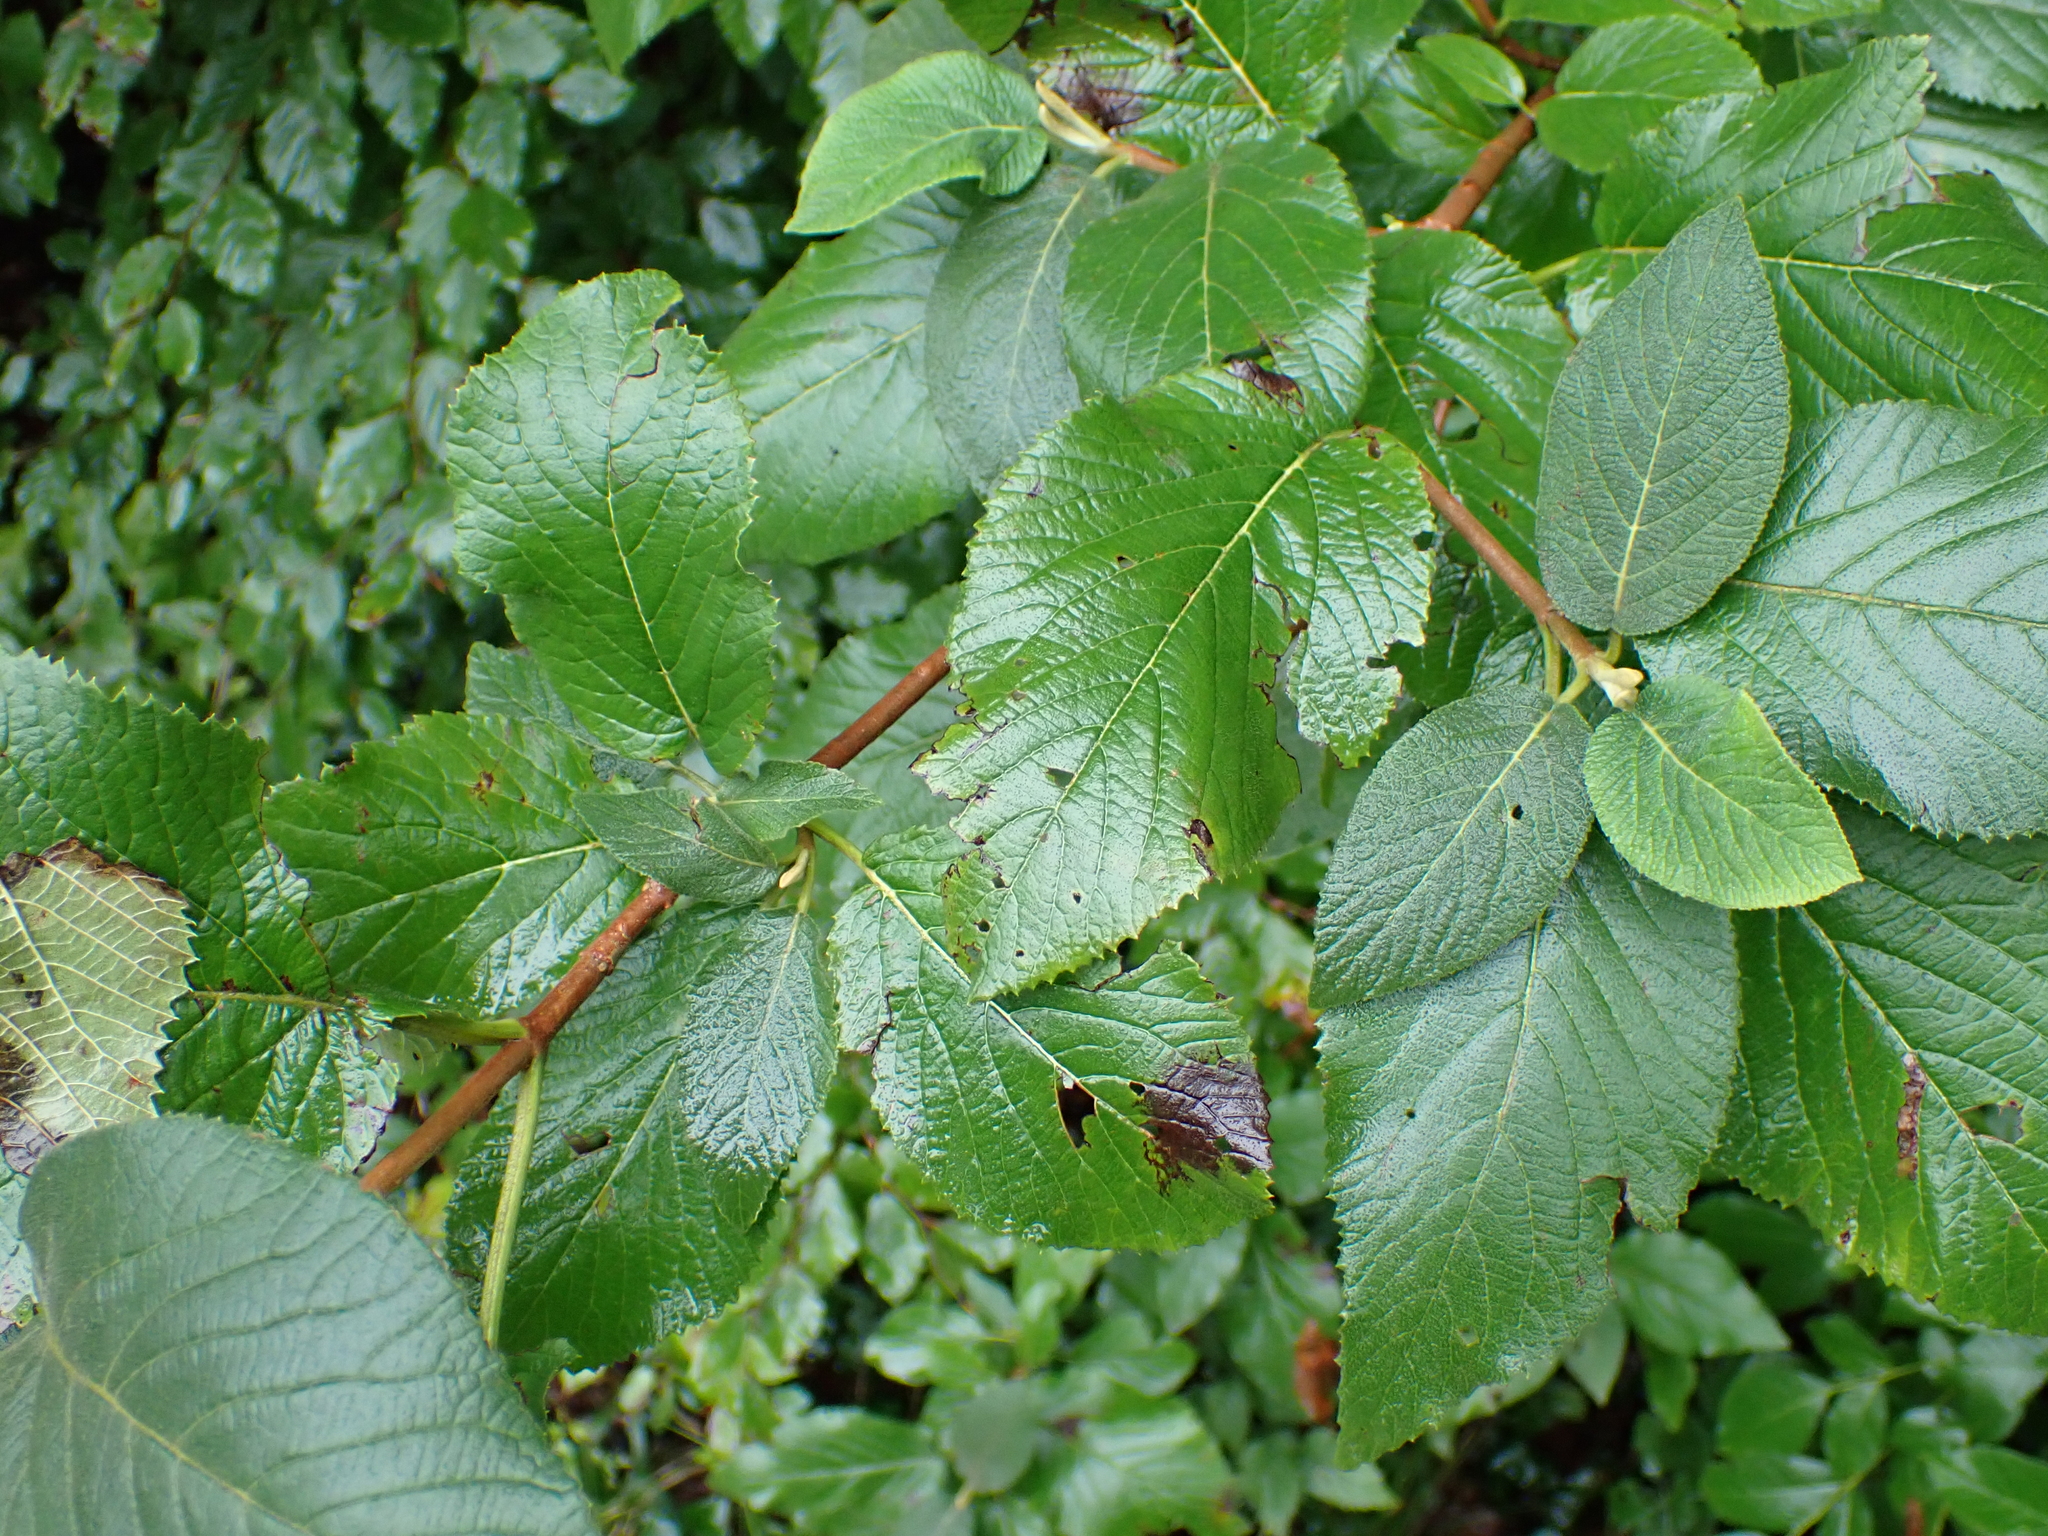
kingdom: Plantae
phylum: Tracheophyta
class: Magnoliopsida
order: Dipsacales
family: Viburnaceae
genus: Viburnum
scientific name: Viburnum lantana
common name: Wayfaring tree
